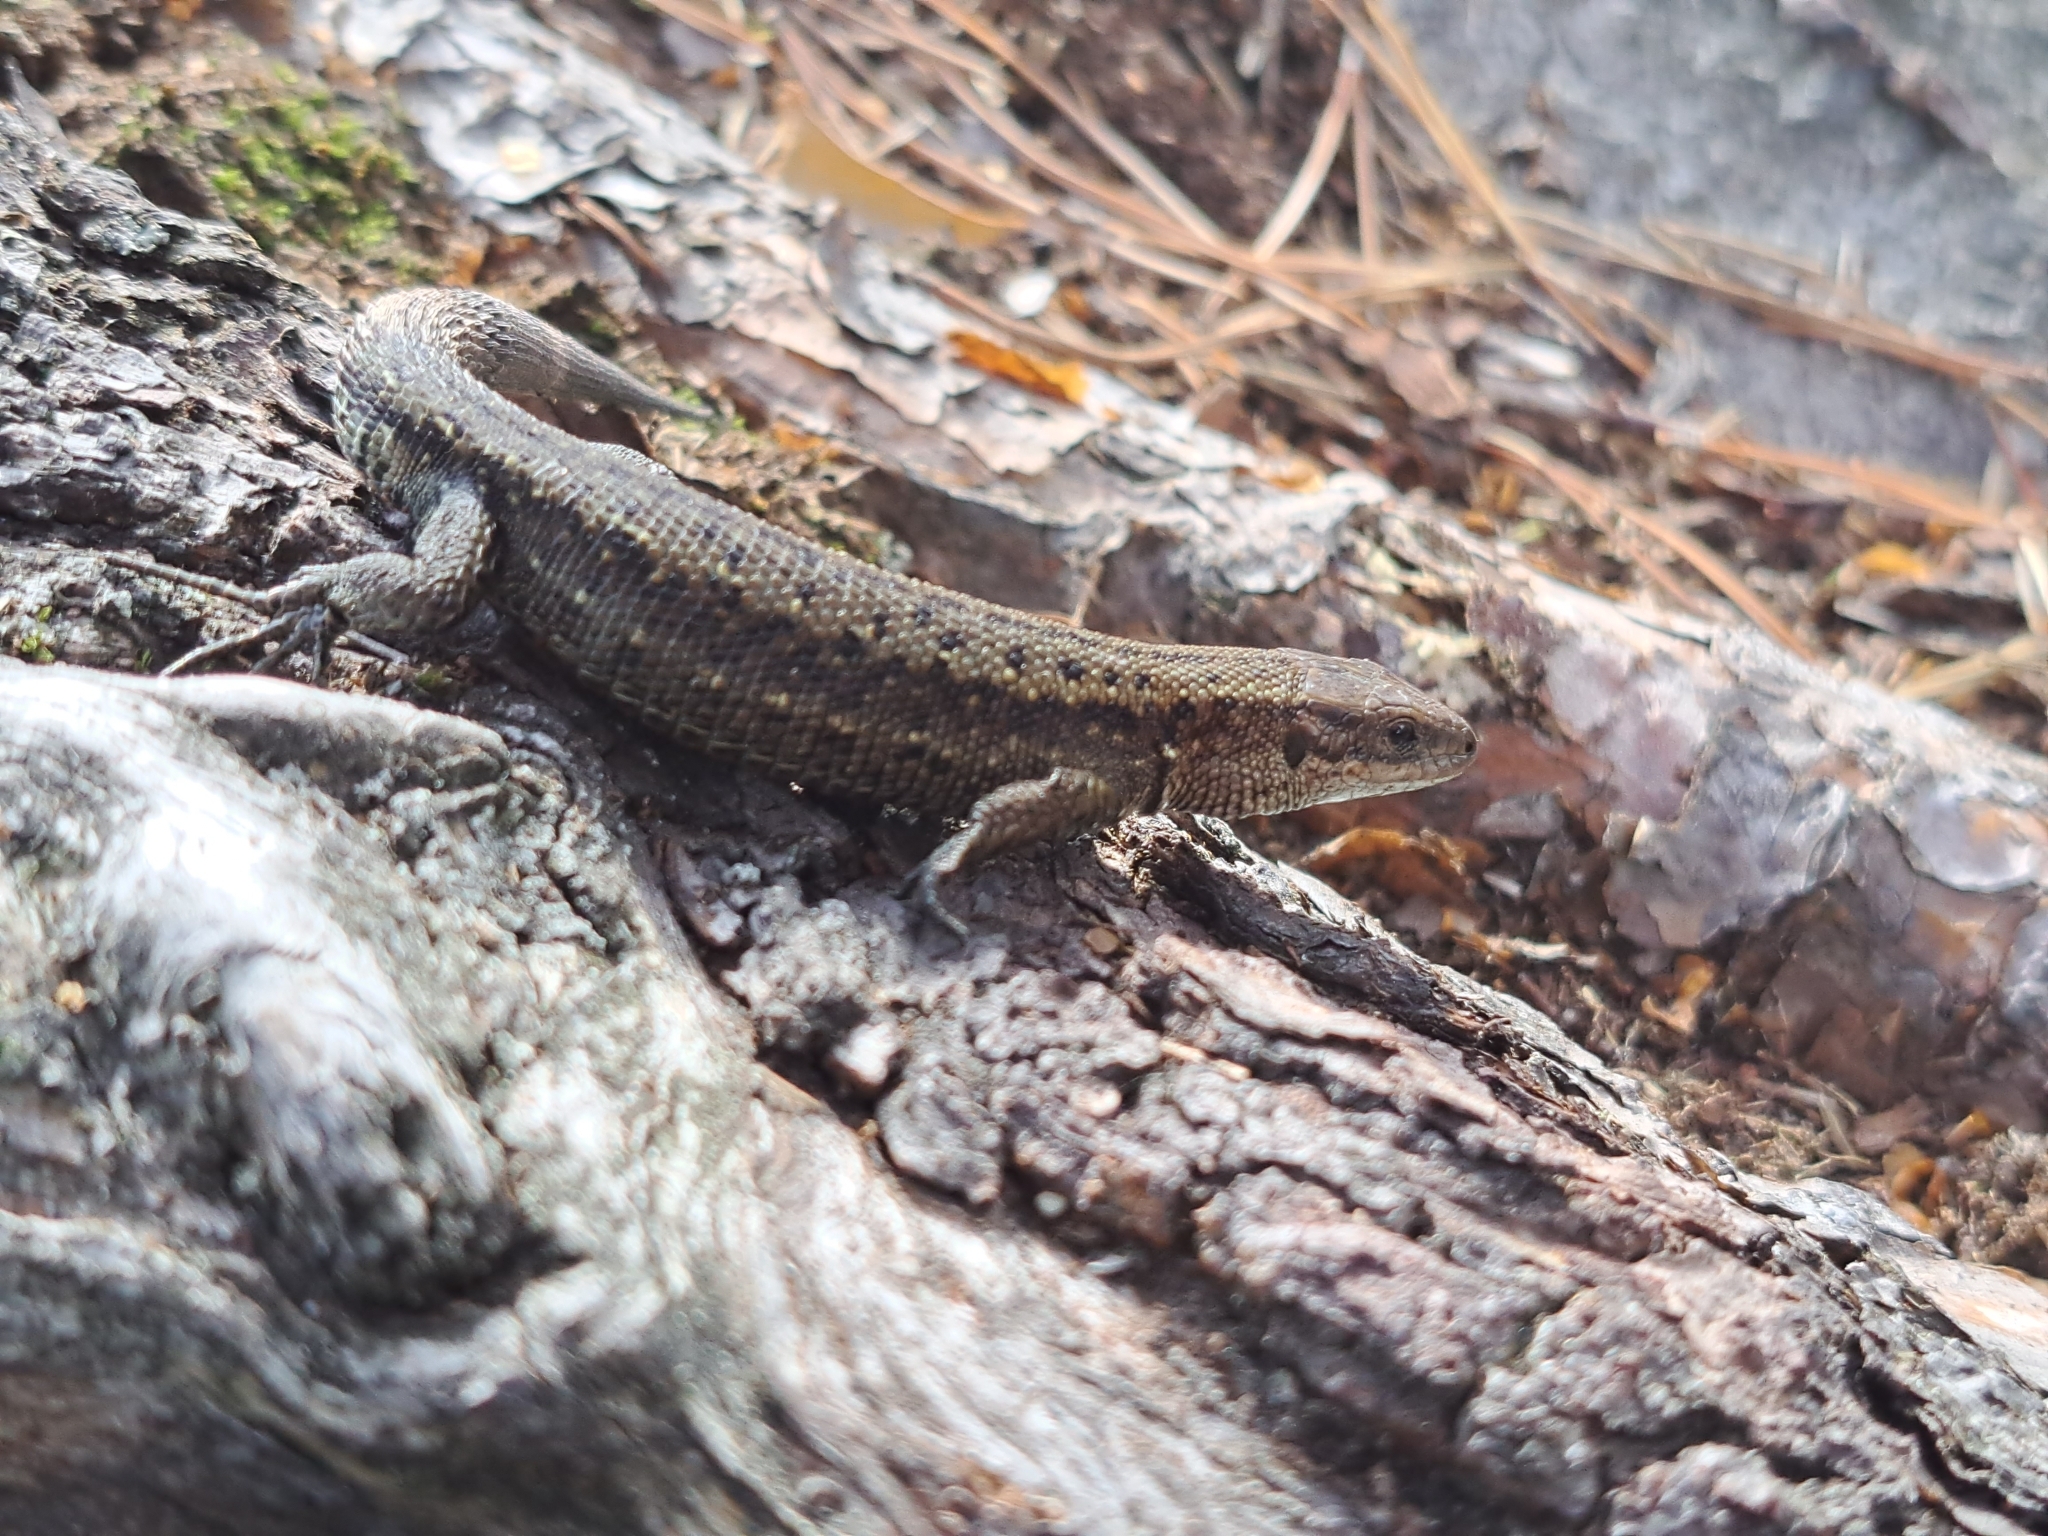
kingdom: Animalia
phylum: Chordata
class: Squamata
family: Lacertidae
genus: Zootoca
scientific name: Zootoca vivipara
